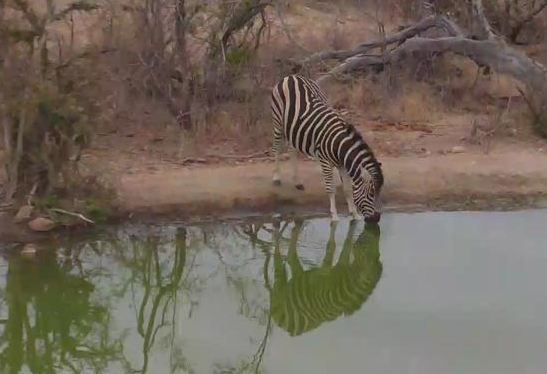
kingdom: Animalia
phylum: Chordata
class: Mammalia
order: Perissodactyla
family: Equidae
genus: Equus
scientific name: Equus quagga
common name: Plains zebra
